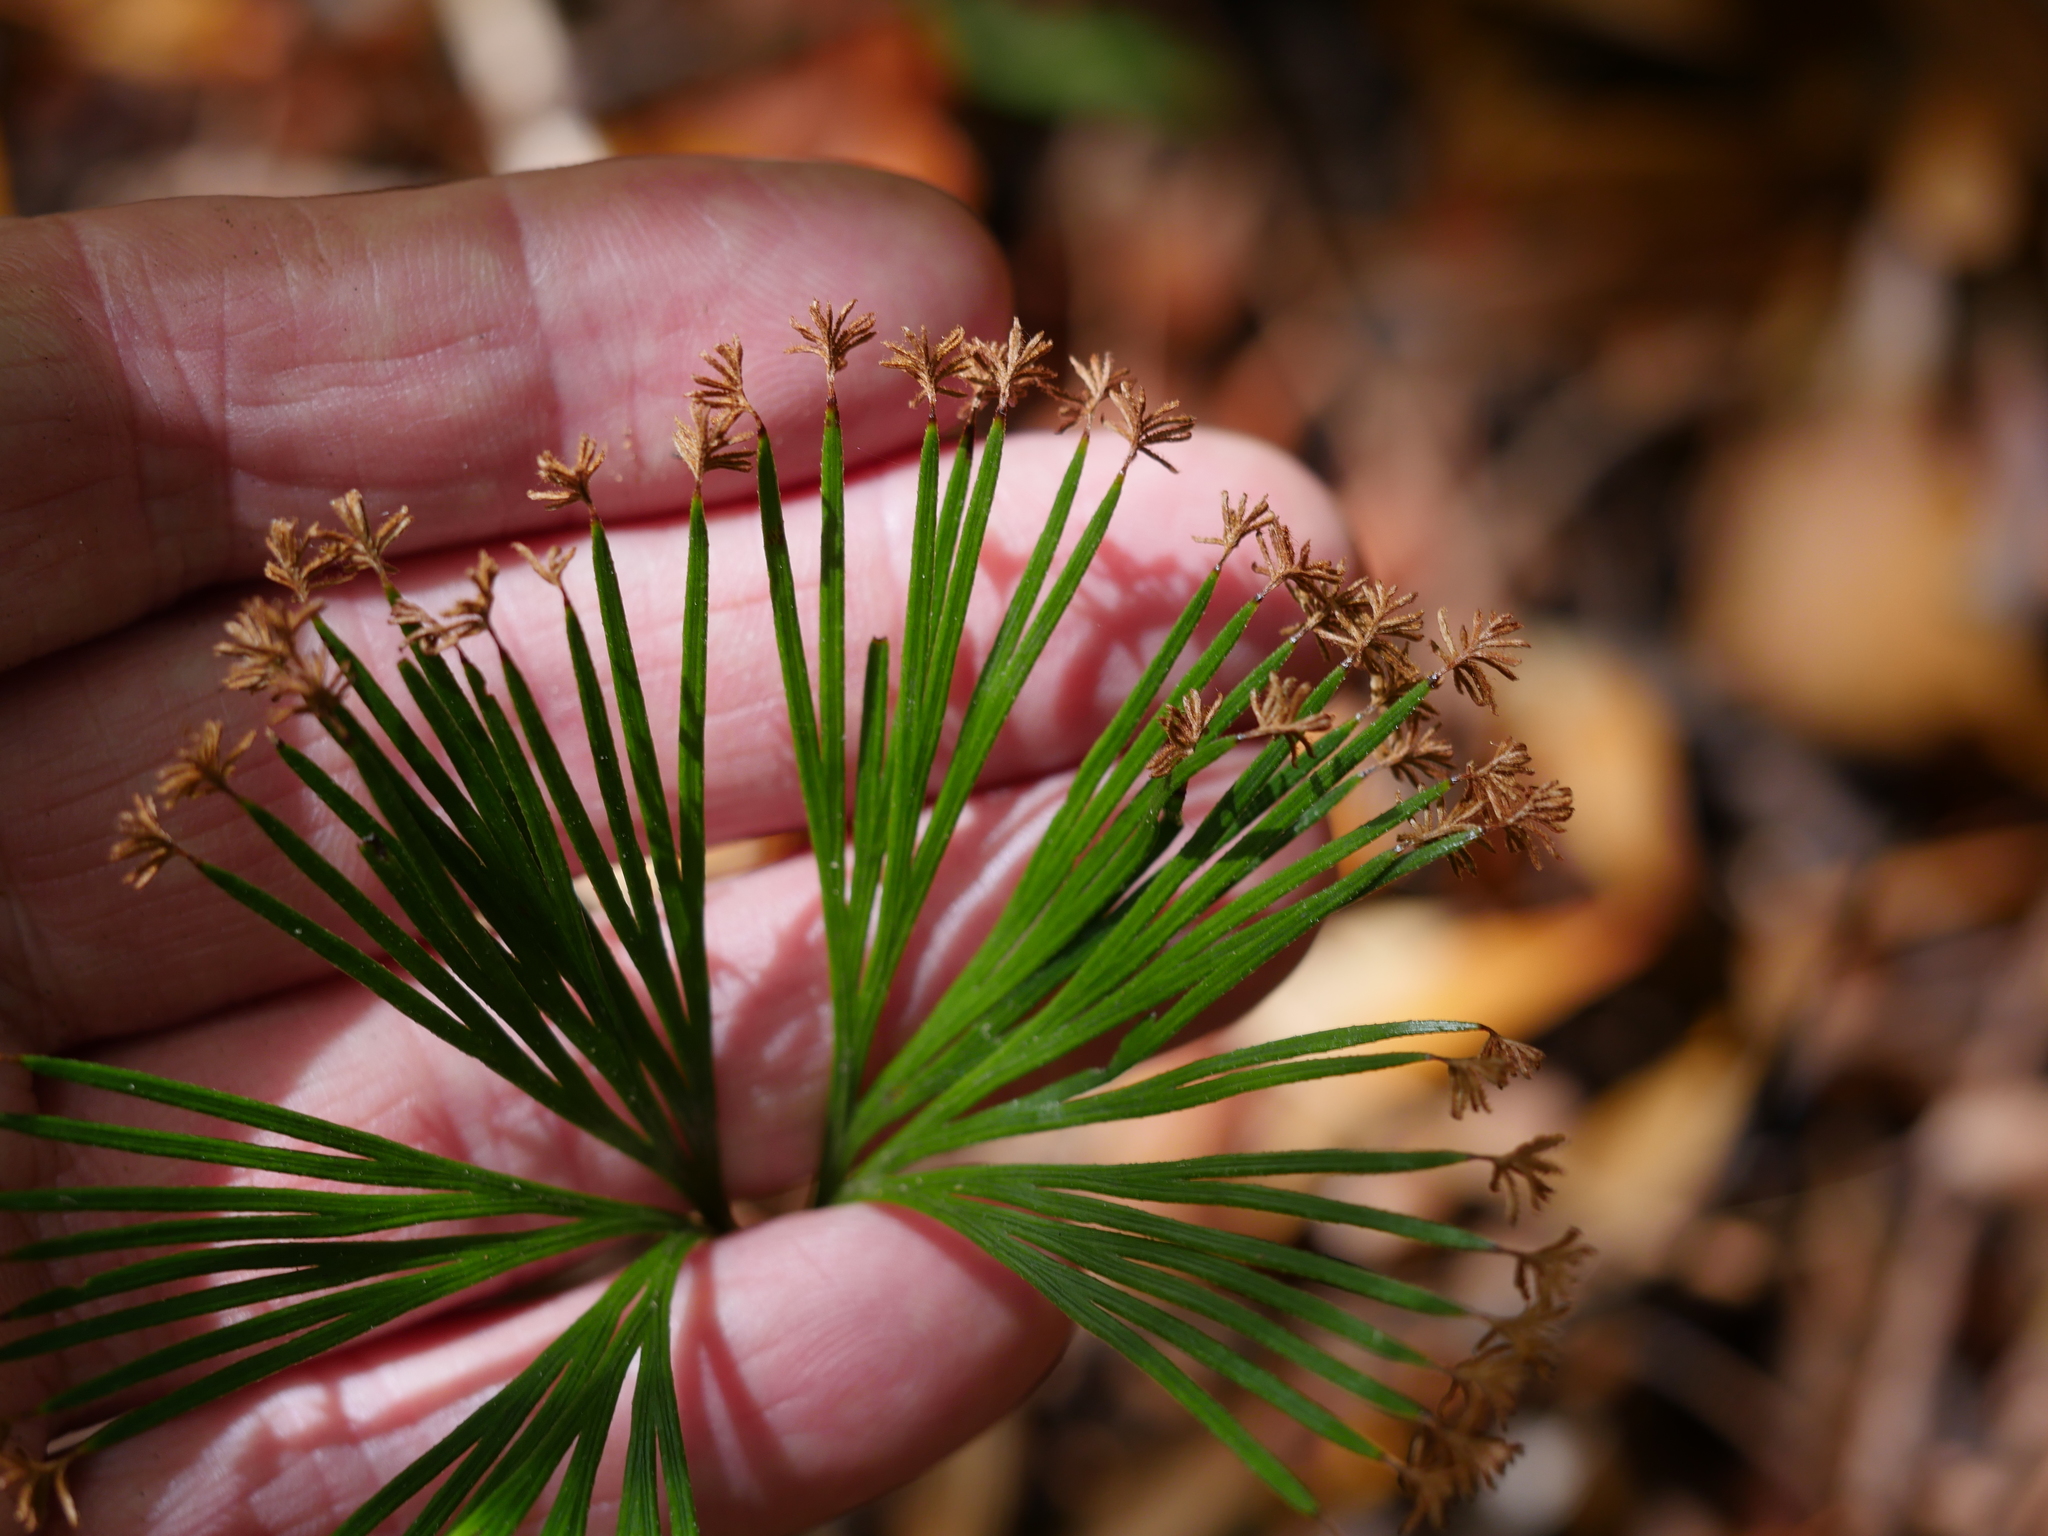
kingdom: Plantae
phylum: Tracheophyta
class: Polypodiopsida
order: Schizaeales
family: Schizaeaceae
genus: Schizaea
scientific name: Schizaea dichotoma
